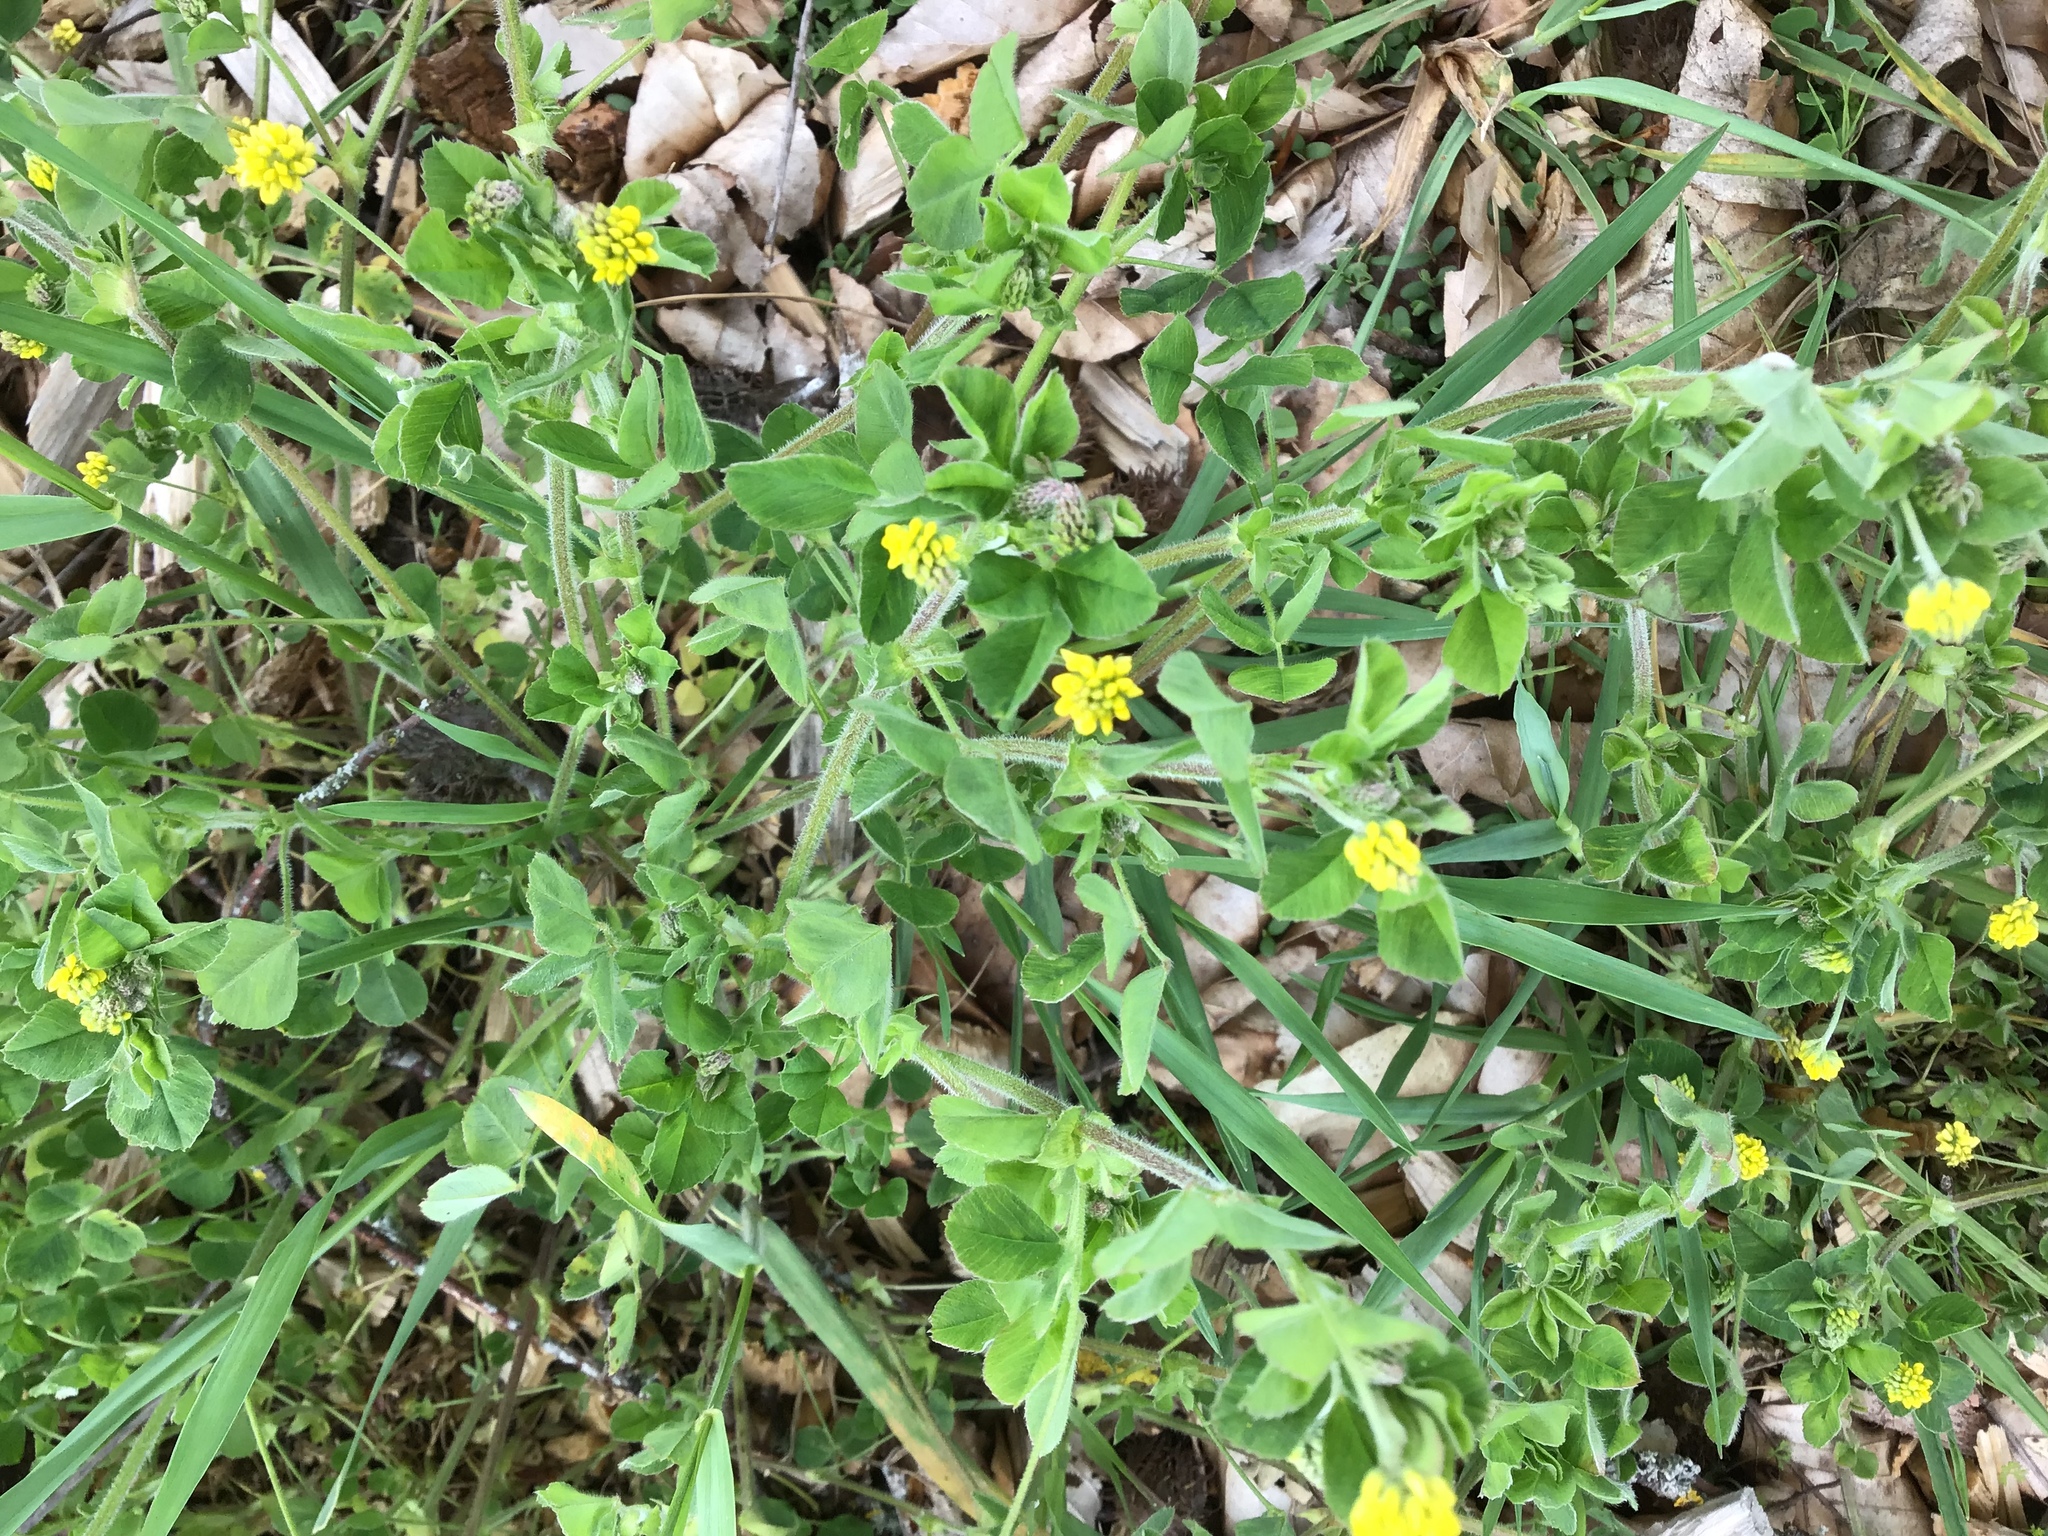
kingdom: Plantae
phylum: Tracheophyta
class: Magnoliopsida
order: Fabales
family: Fabaceae
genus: Medicago
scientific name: Medicago lupulina
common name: Black medick
